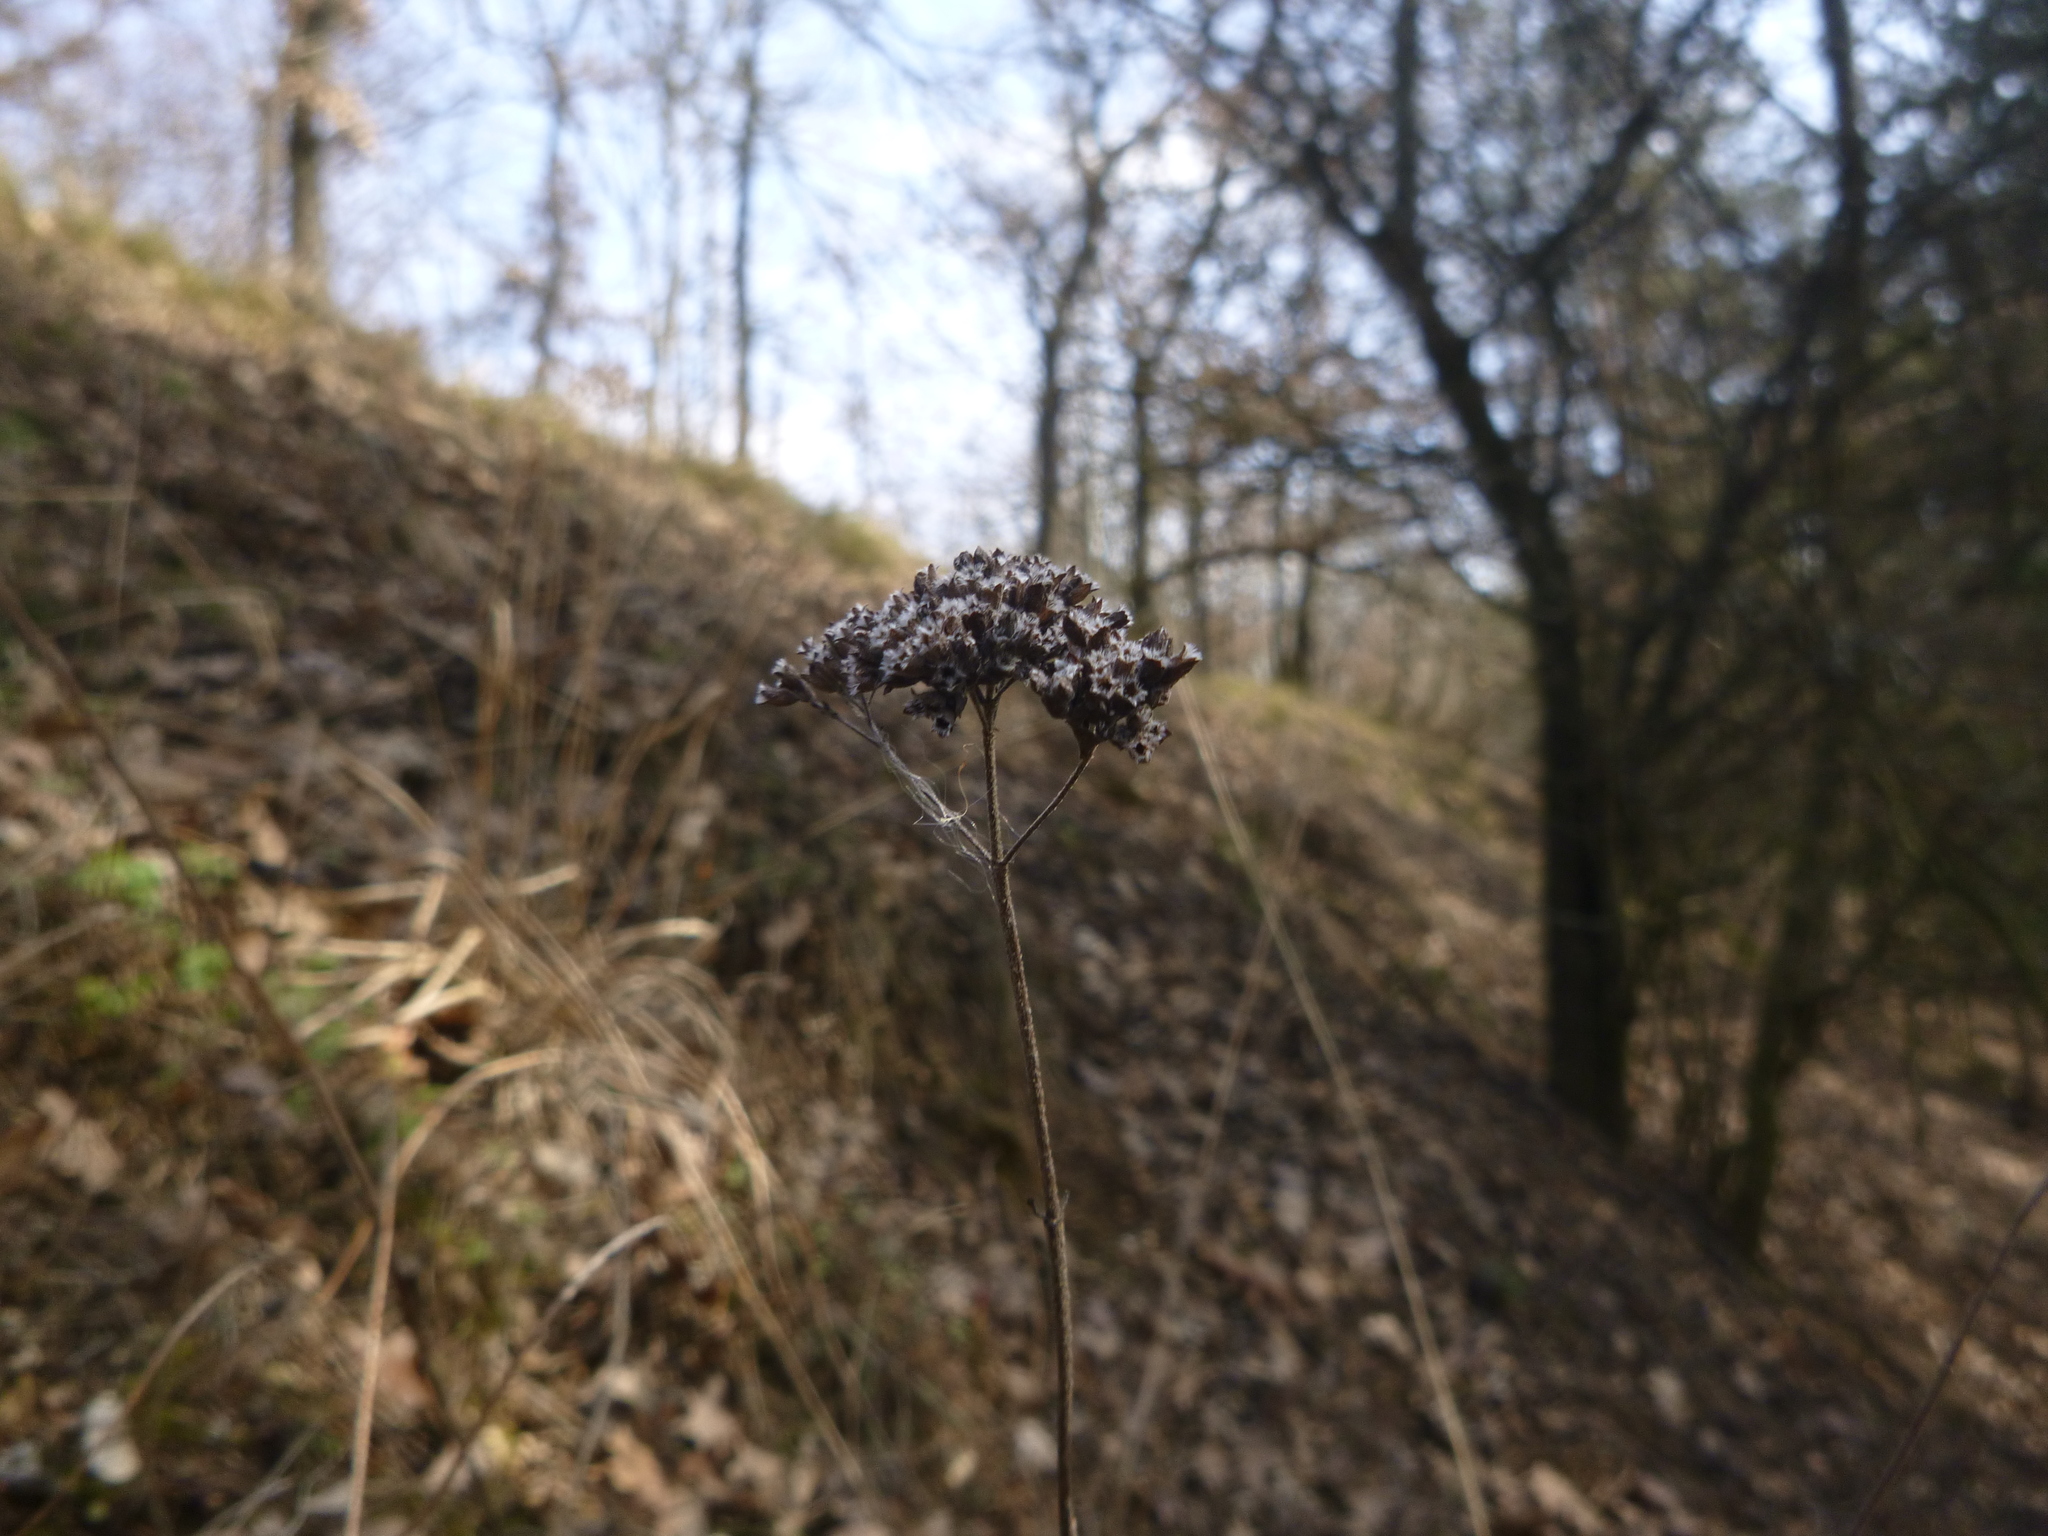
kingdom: Plantae
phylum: Tracheophyta
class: Magnoliopsida
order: Lamiales
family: Lamiaceae
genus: Origanum
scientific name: Origanum vulgare
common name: Wild marjoram
